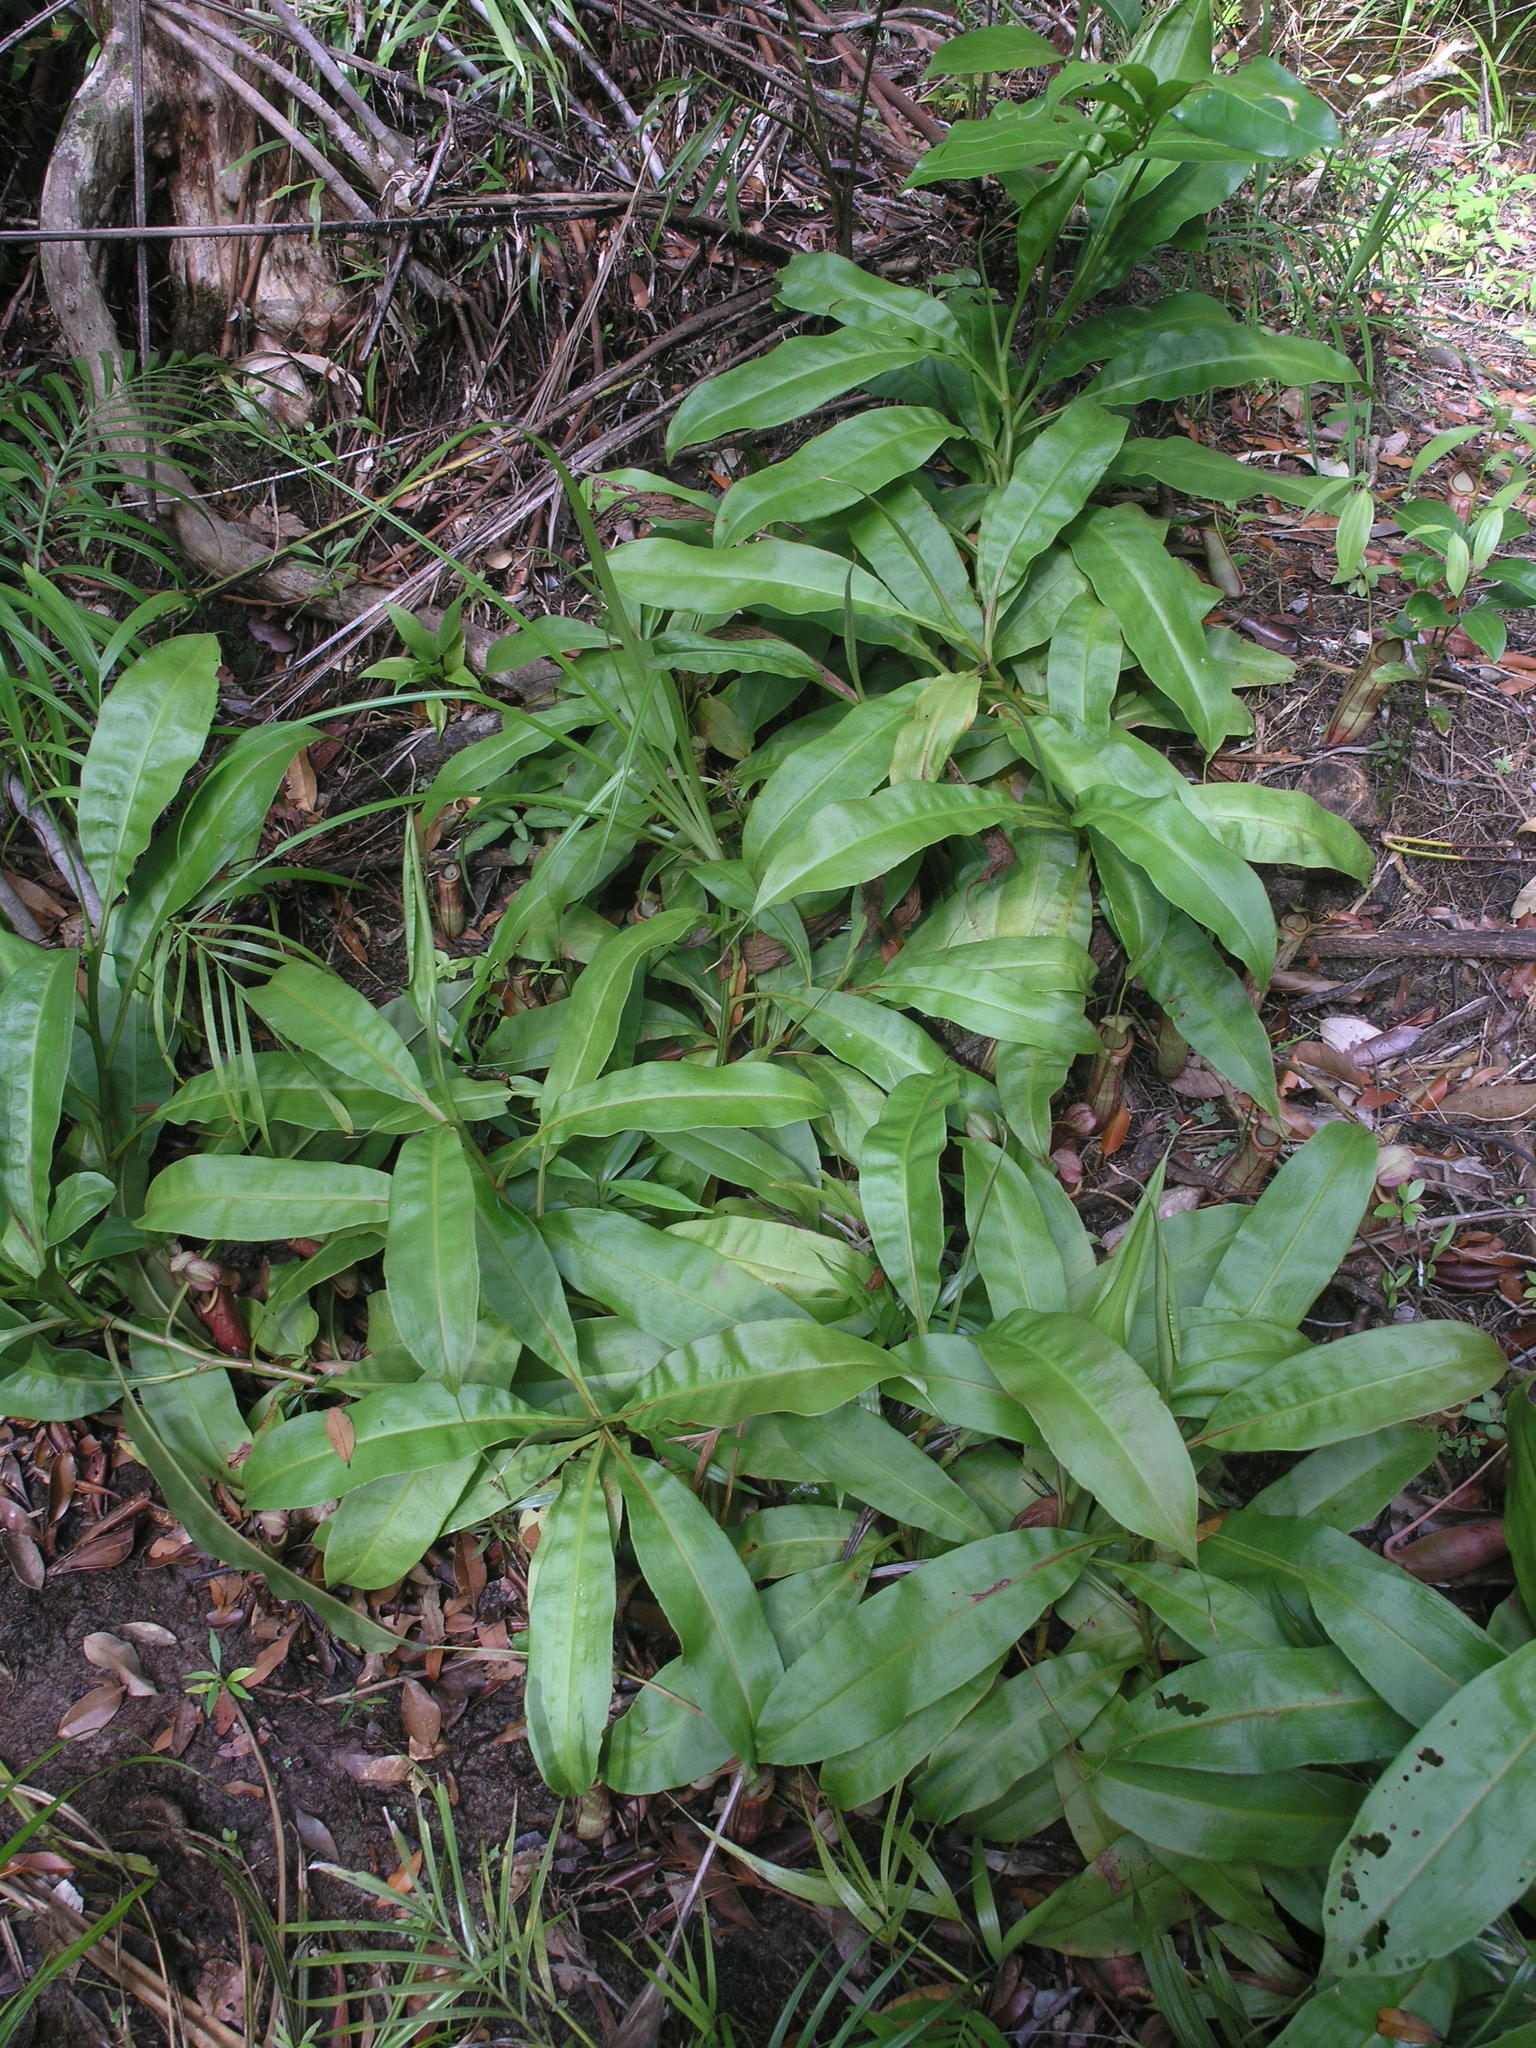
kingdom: Plantae
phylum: Tracheophyta
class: Magnoliopsida
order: Caryophyllales
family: Nepenthaceae
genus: Nepenthes
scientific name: Nepenthes mirabilis
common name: Tropical pitcherplant
